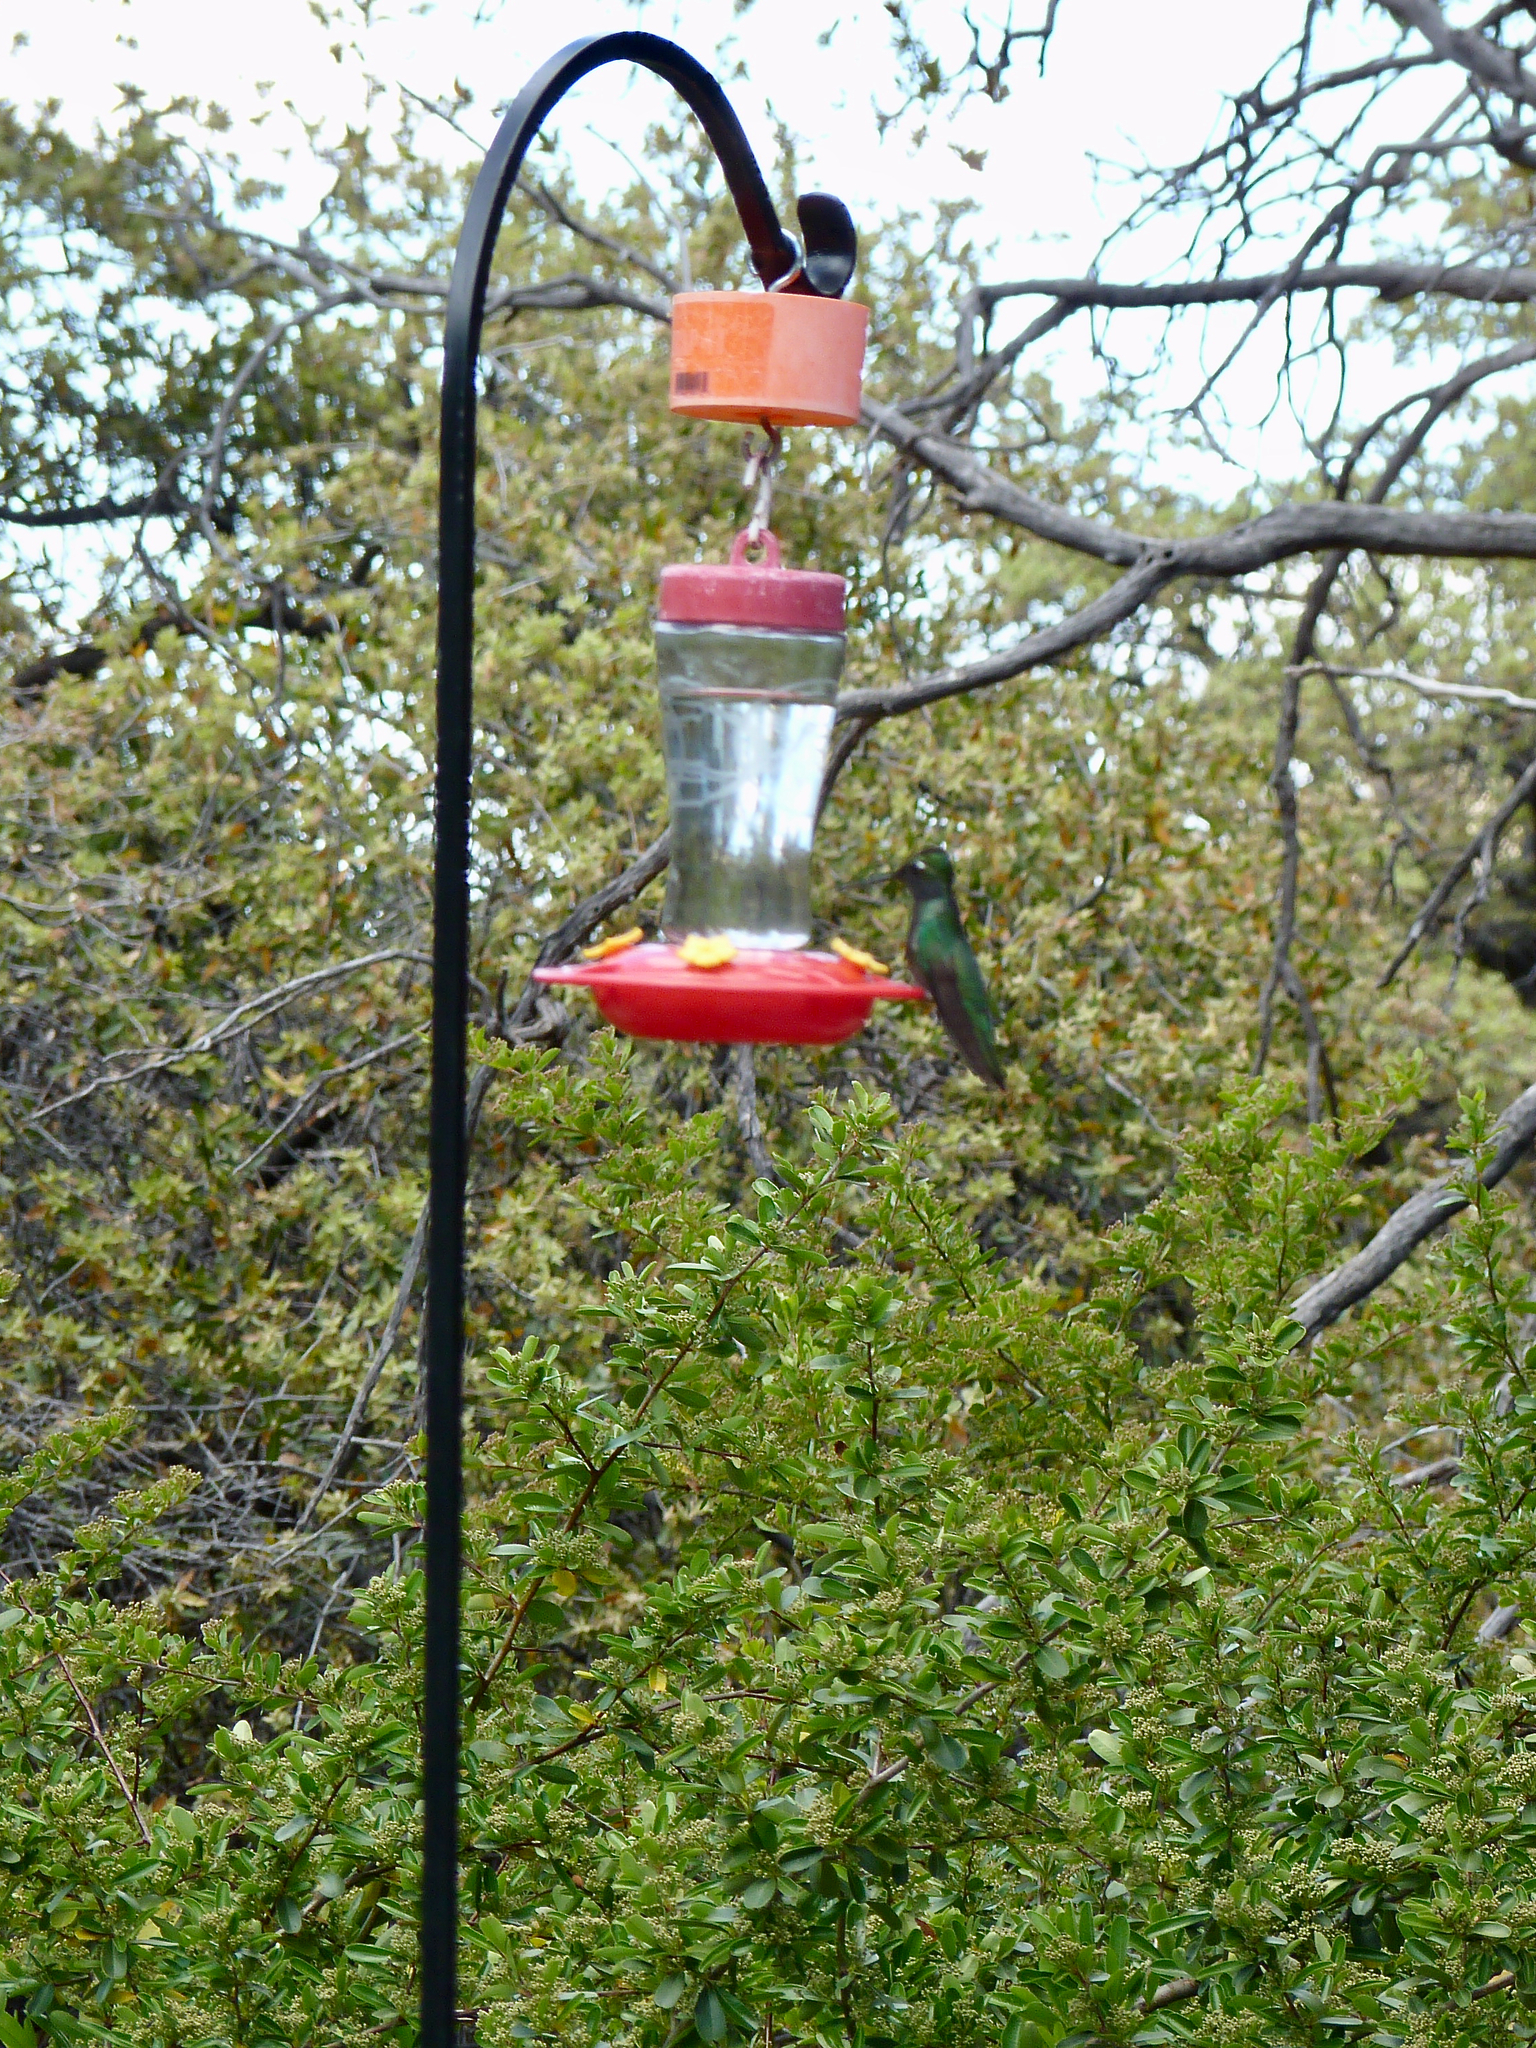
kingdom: Animalia
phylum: Chordata
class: Aves
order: Apodiformes
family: Trochilidae
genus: Eugenes
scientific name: Eugenes fulgens
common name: Magnificent hummingbird
